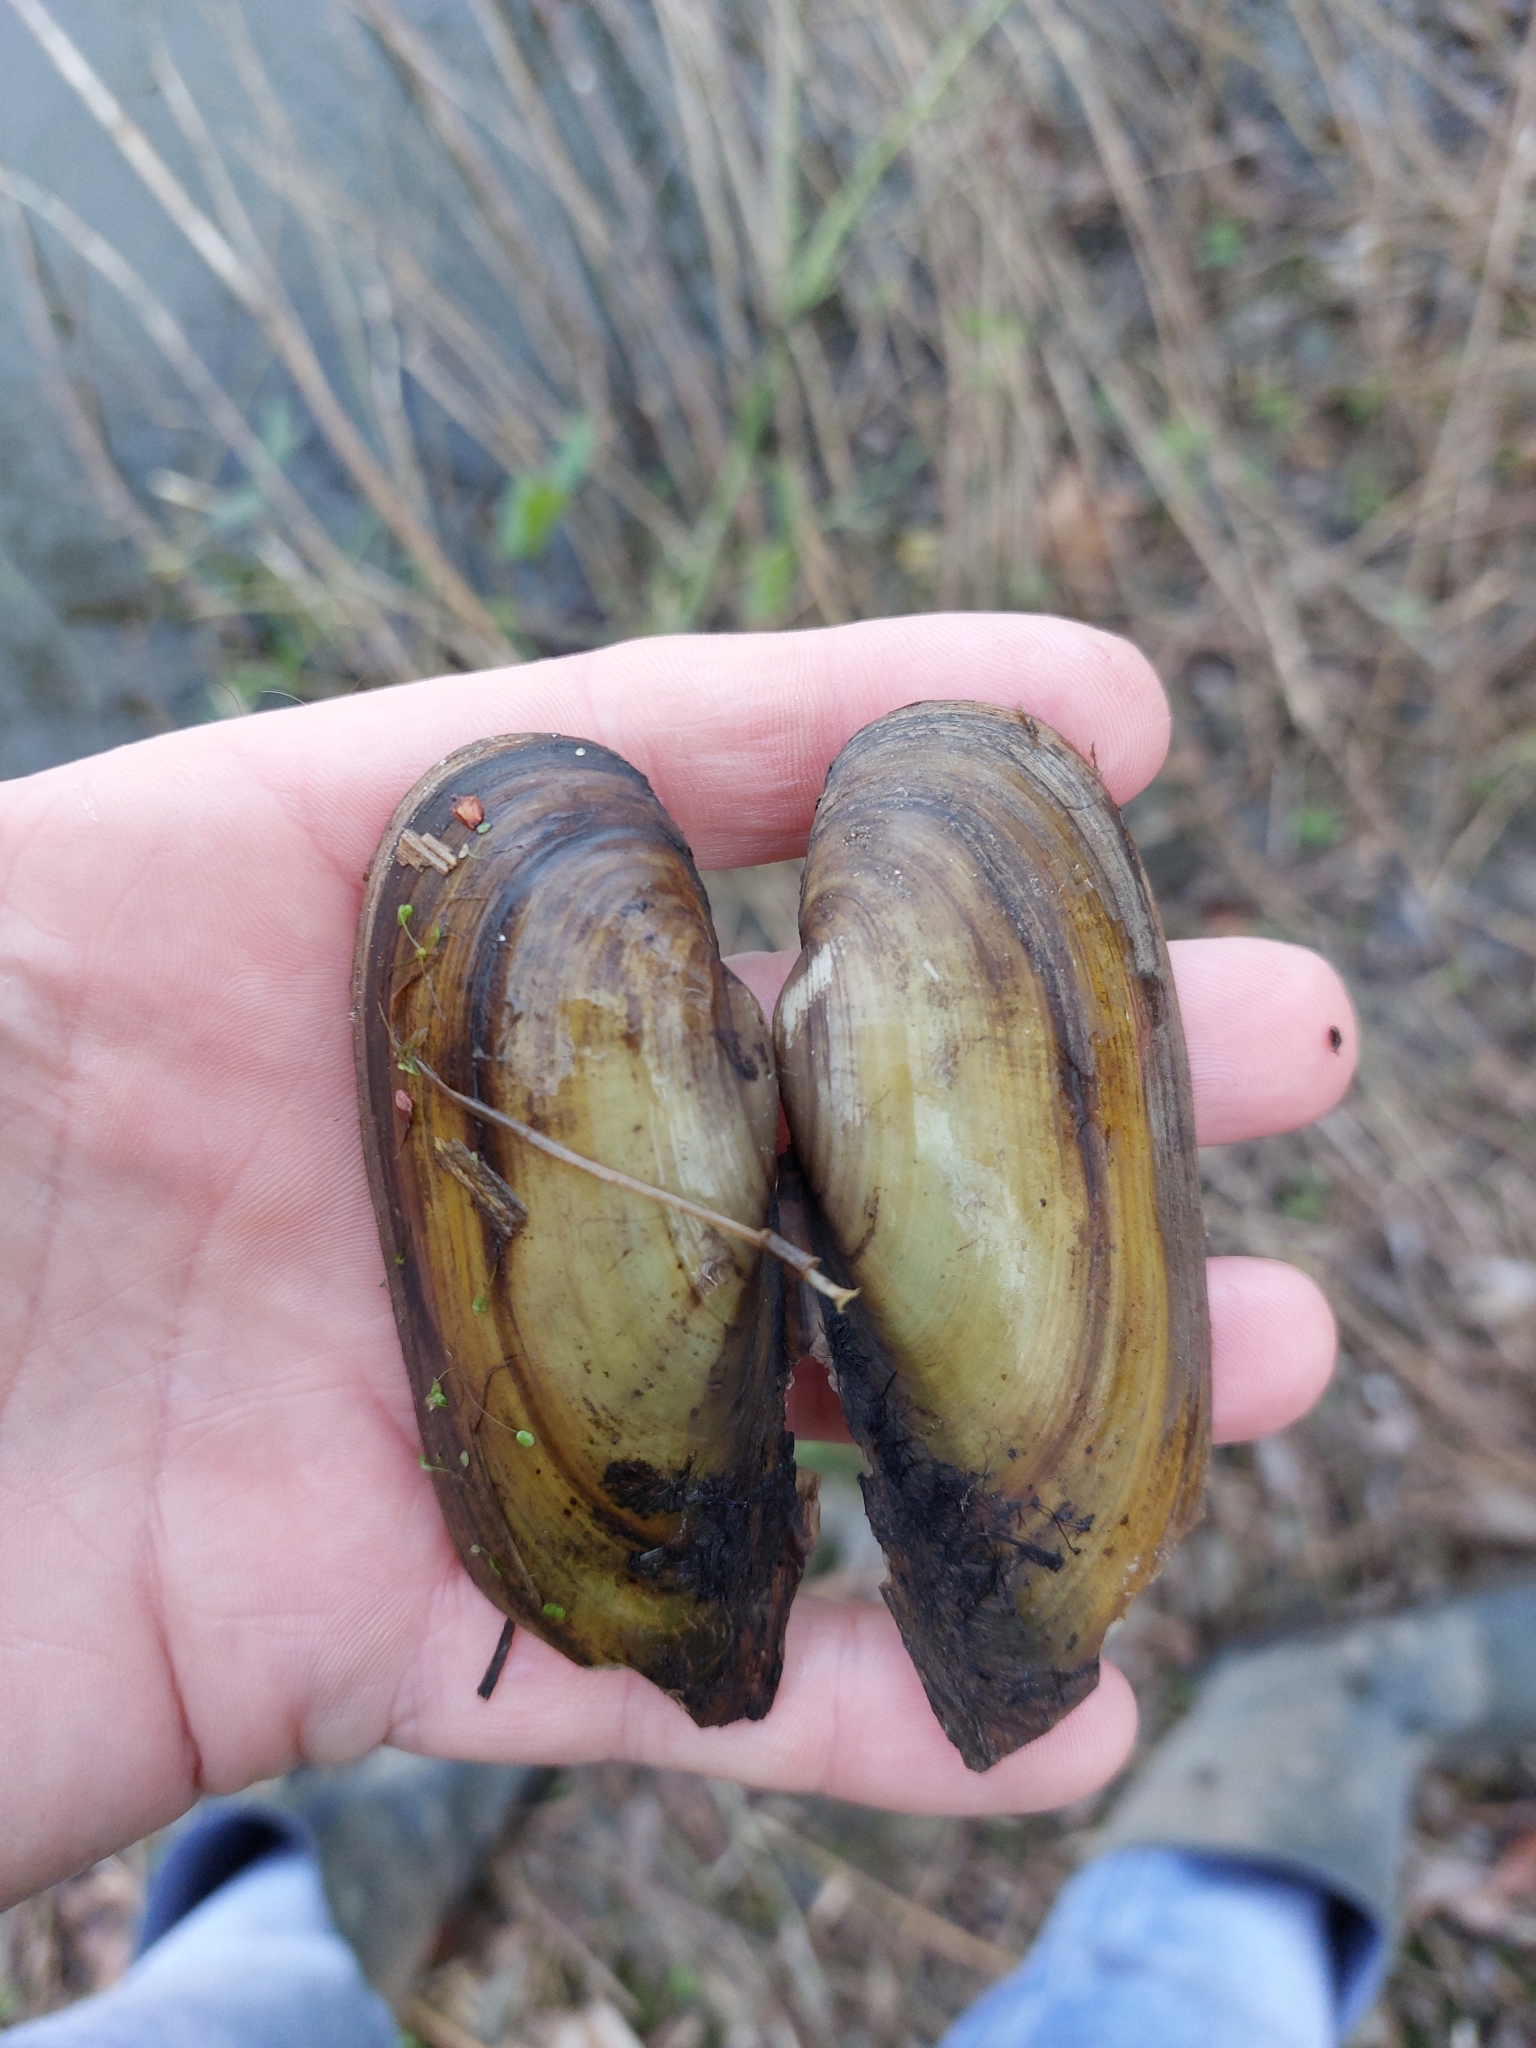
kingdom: Animalia
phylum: Mollusca
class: Bivalvia
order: Unionida
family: Unionidae
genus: Unio
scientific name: Unio pictorum
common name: Painter's mussel
